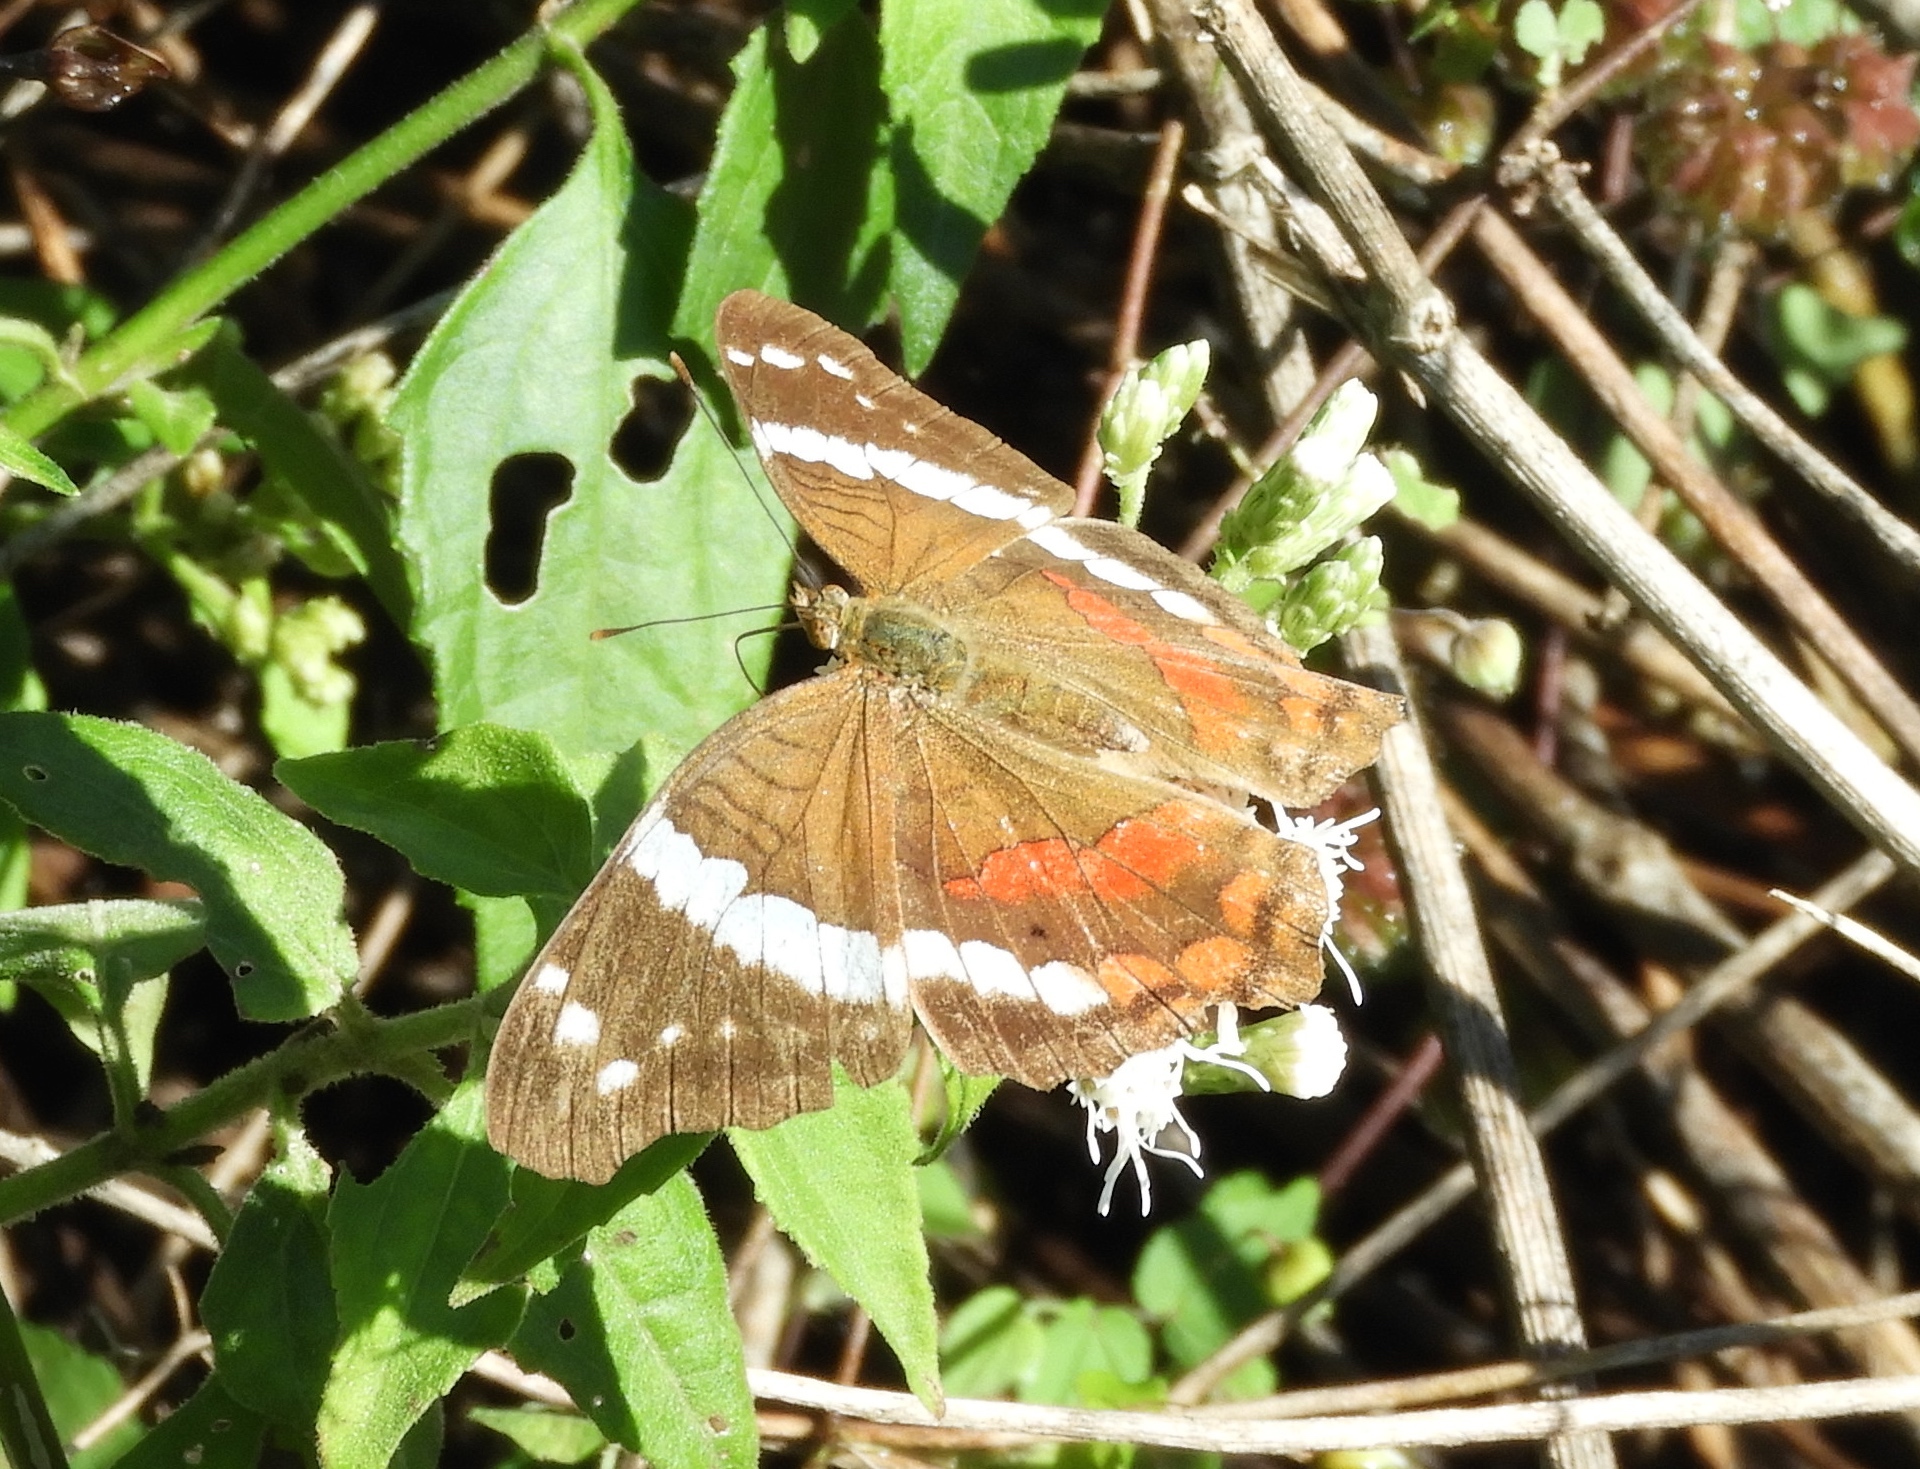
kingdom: Animalia
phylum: Arthropoda
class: Insecta
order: Lepidoptera
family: Nymphalidae
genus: Anartia
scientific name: Anartia fatima
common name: Banded peacock
